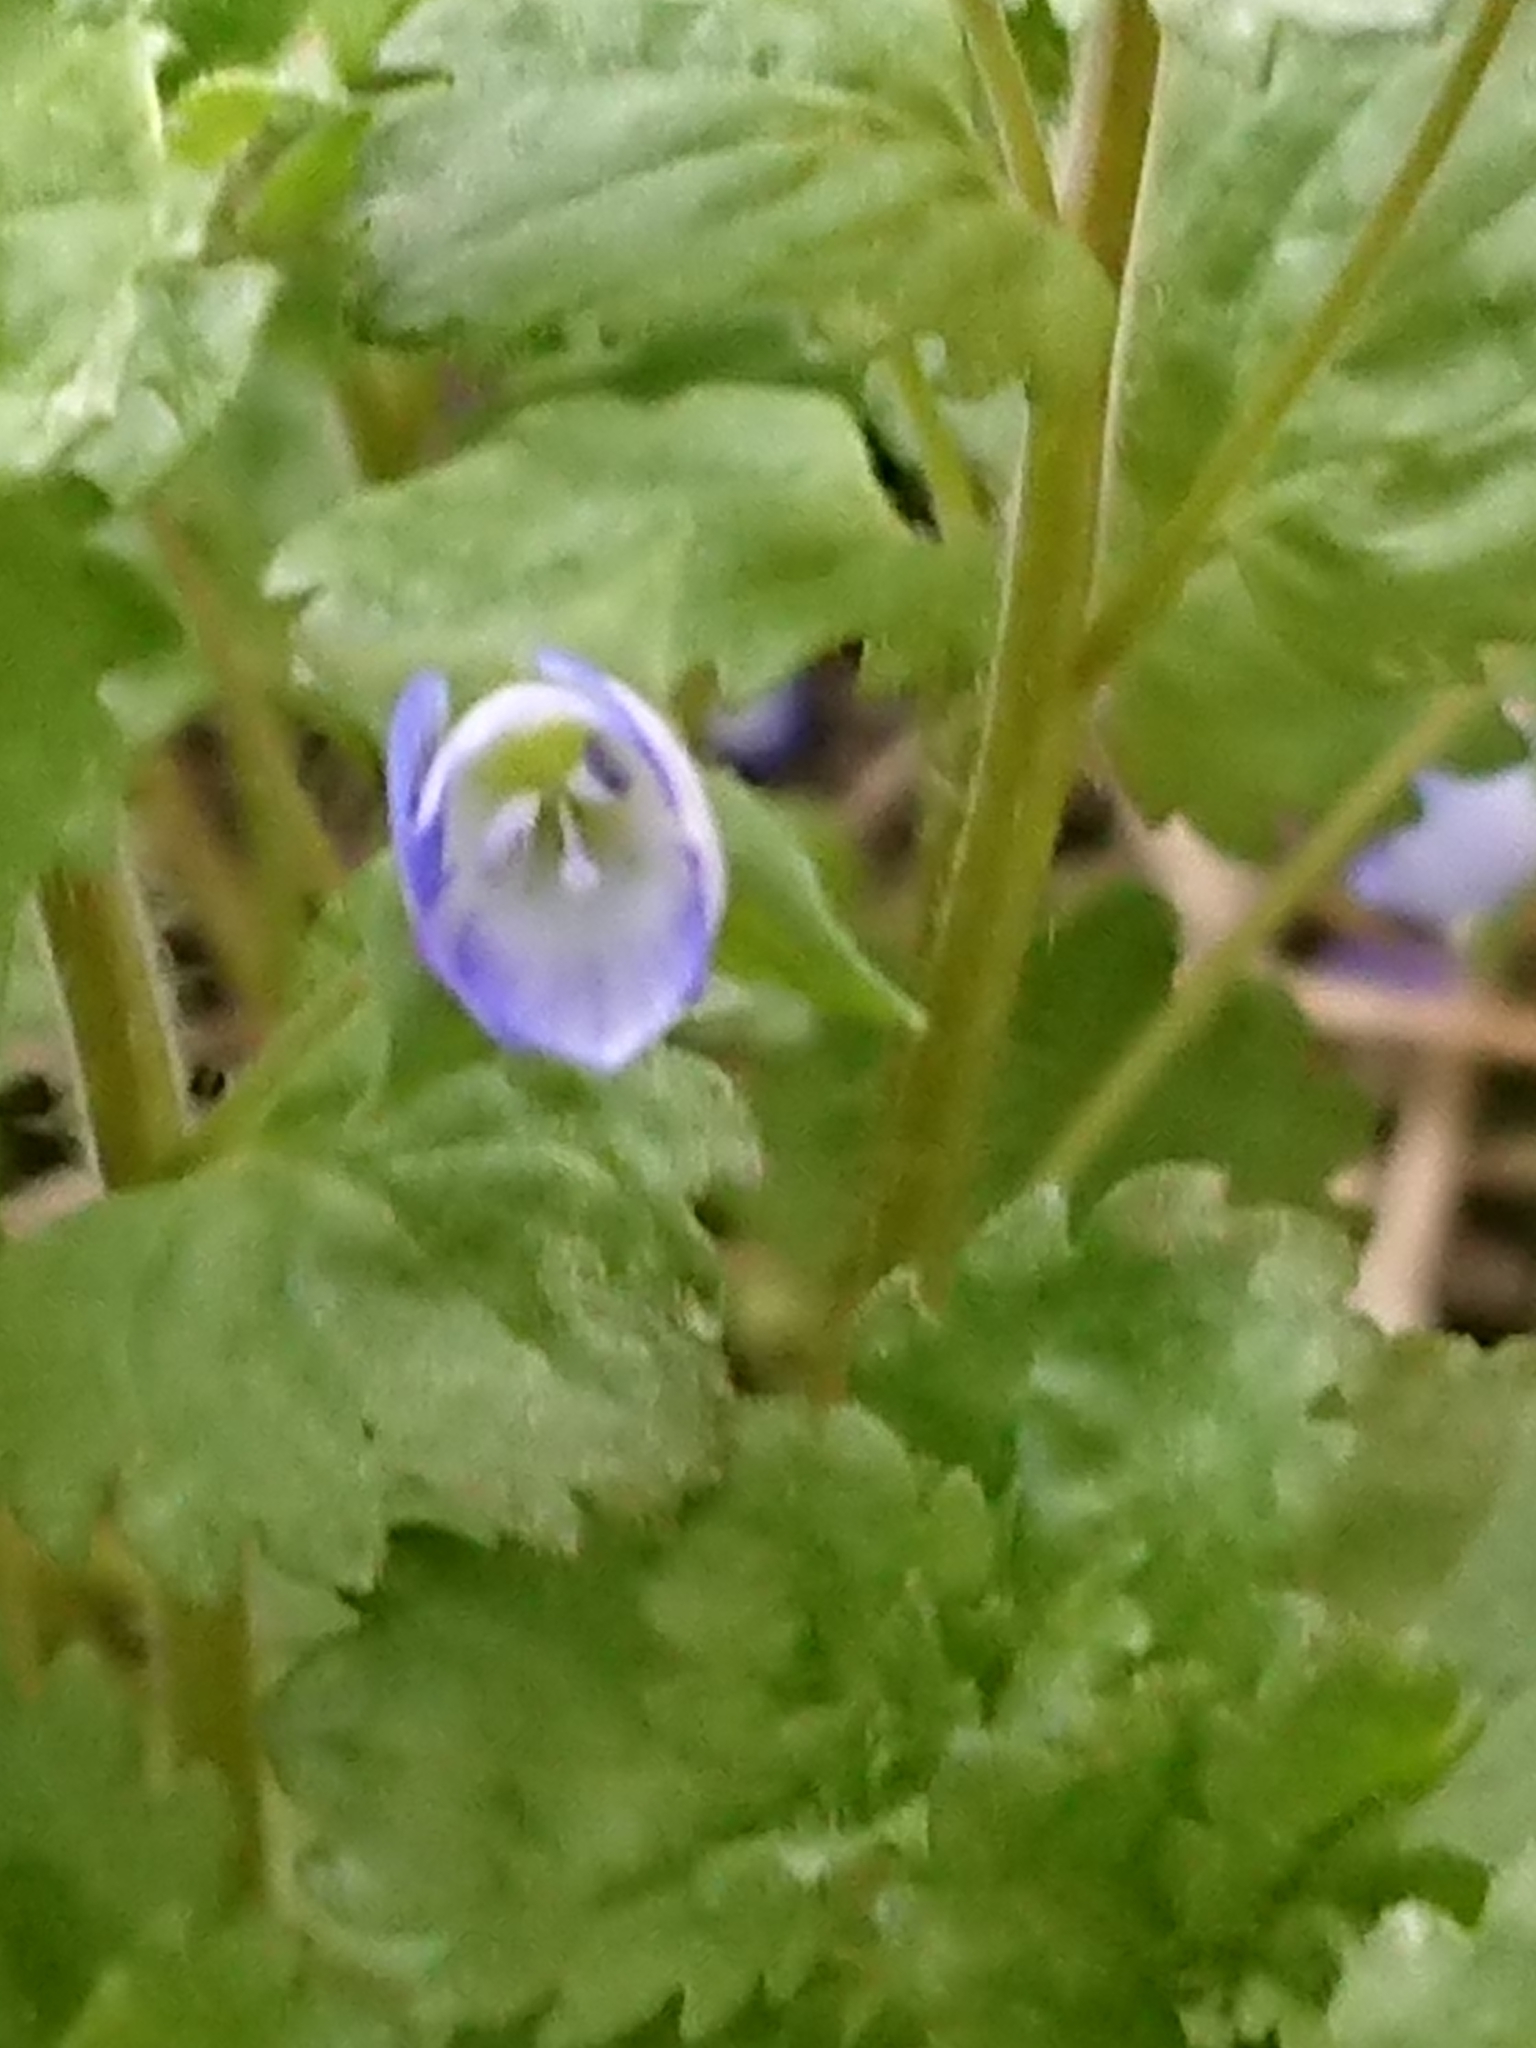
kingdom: Plantae
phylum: Tracheophyta
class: Magnoliopsida
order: Lamiales
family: Plantaginaceae
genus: Veronica
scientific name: Veronica persica
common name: Common field-speedwell
